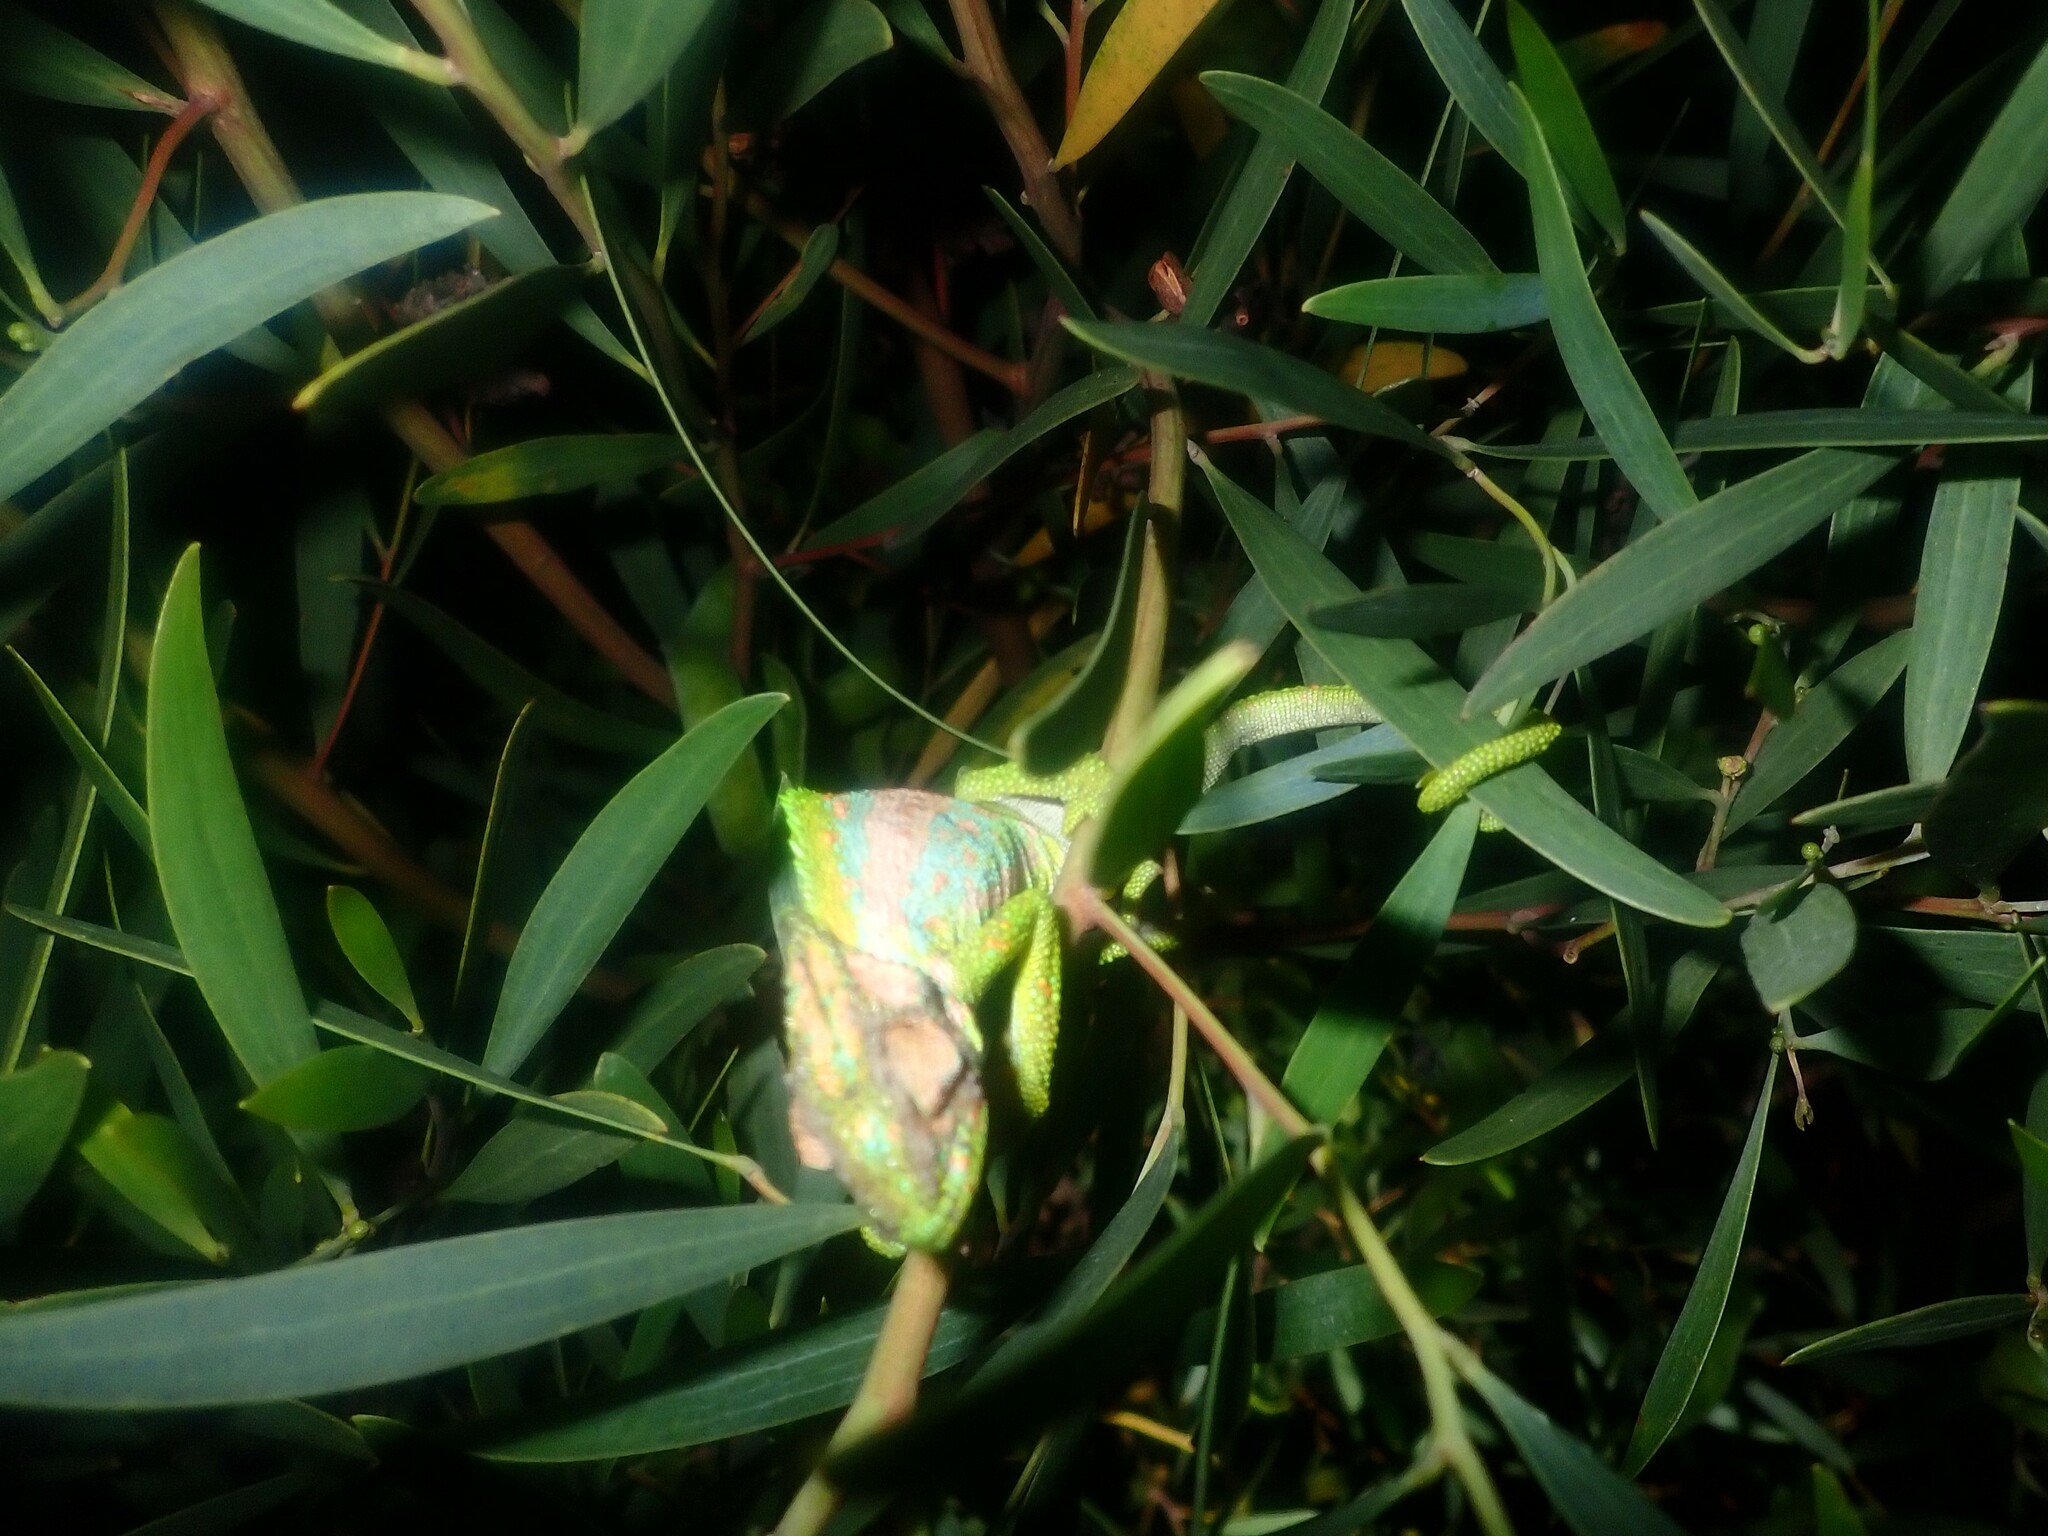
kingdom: Animalia
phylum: Chordata
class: Squamata
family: Chamaeleonidae
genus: Bradypodion
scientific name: Bradypodion pumilum
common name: Cape dwarf chameleon
